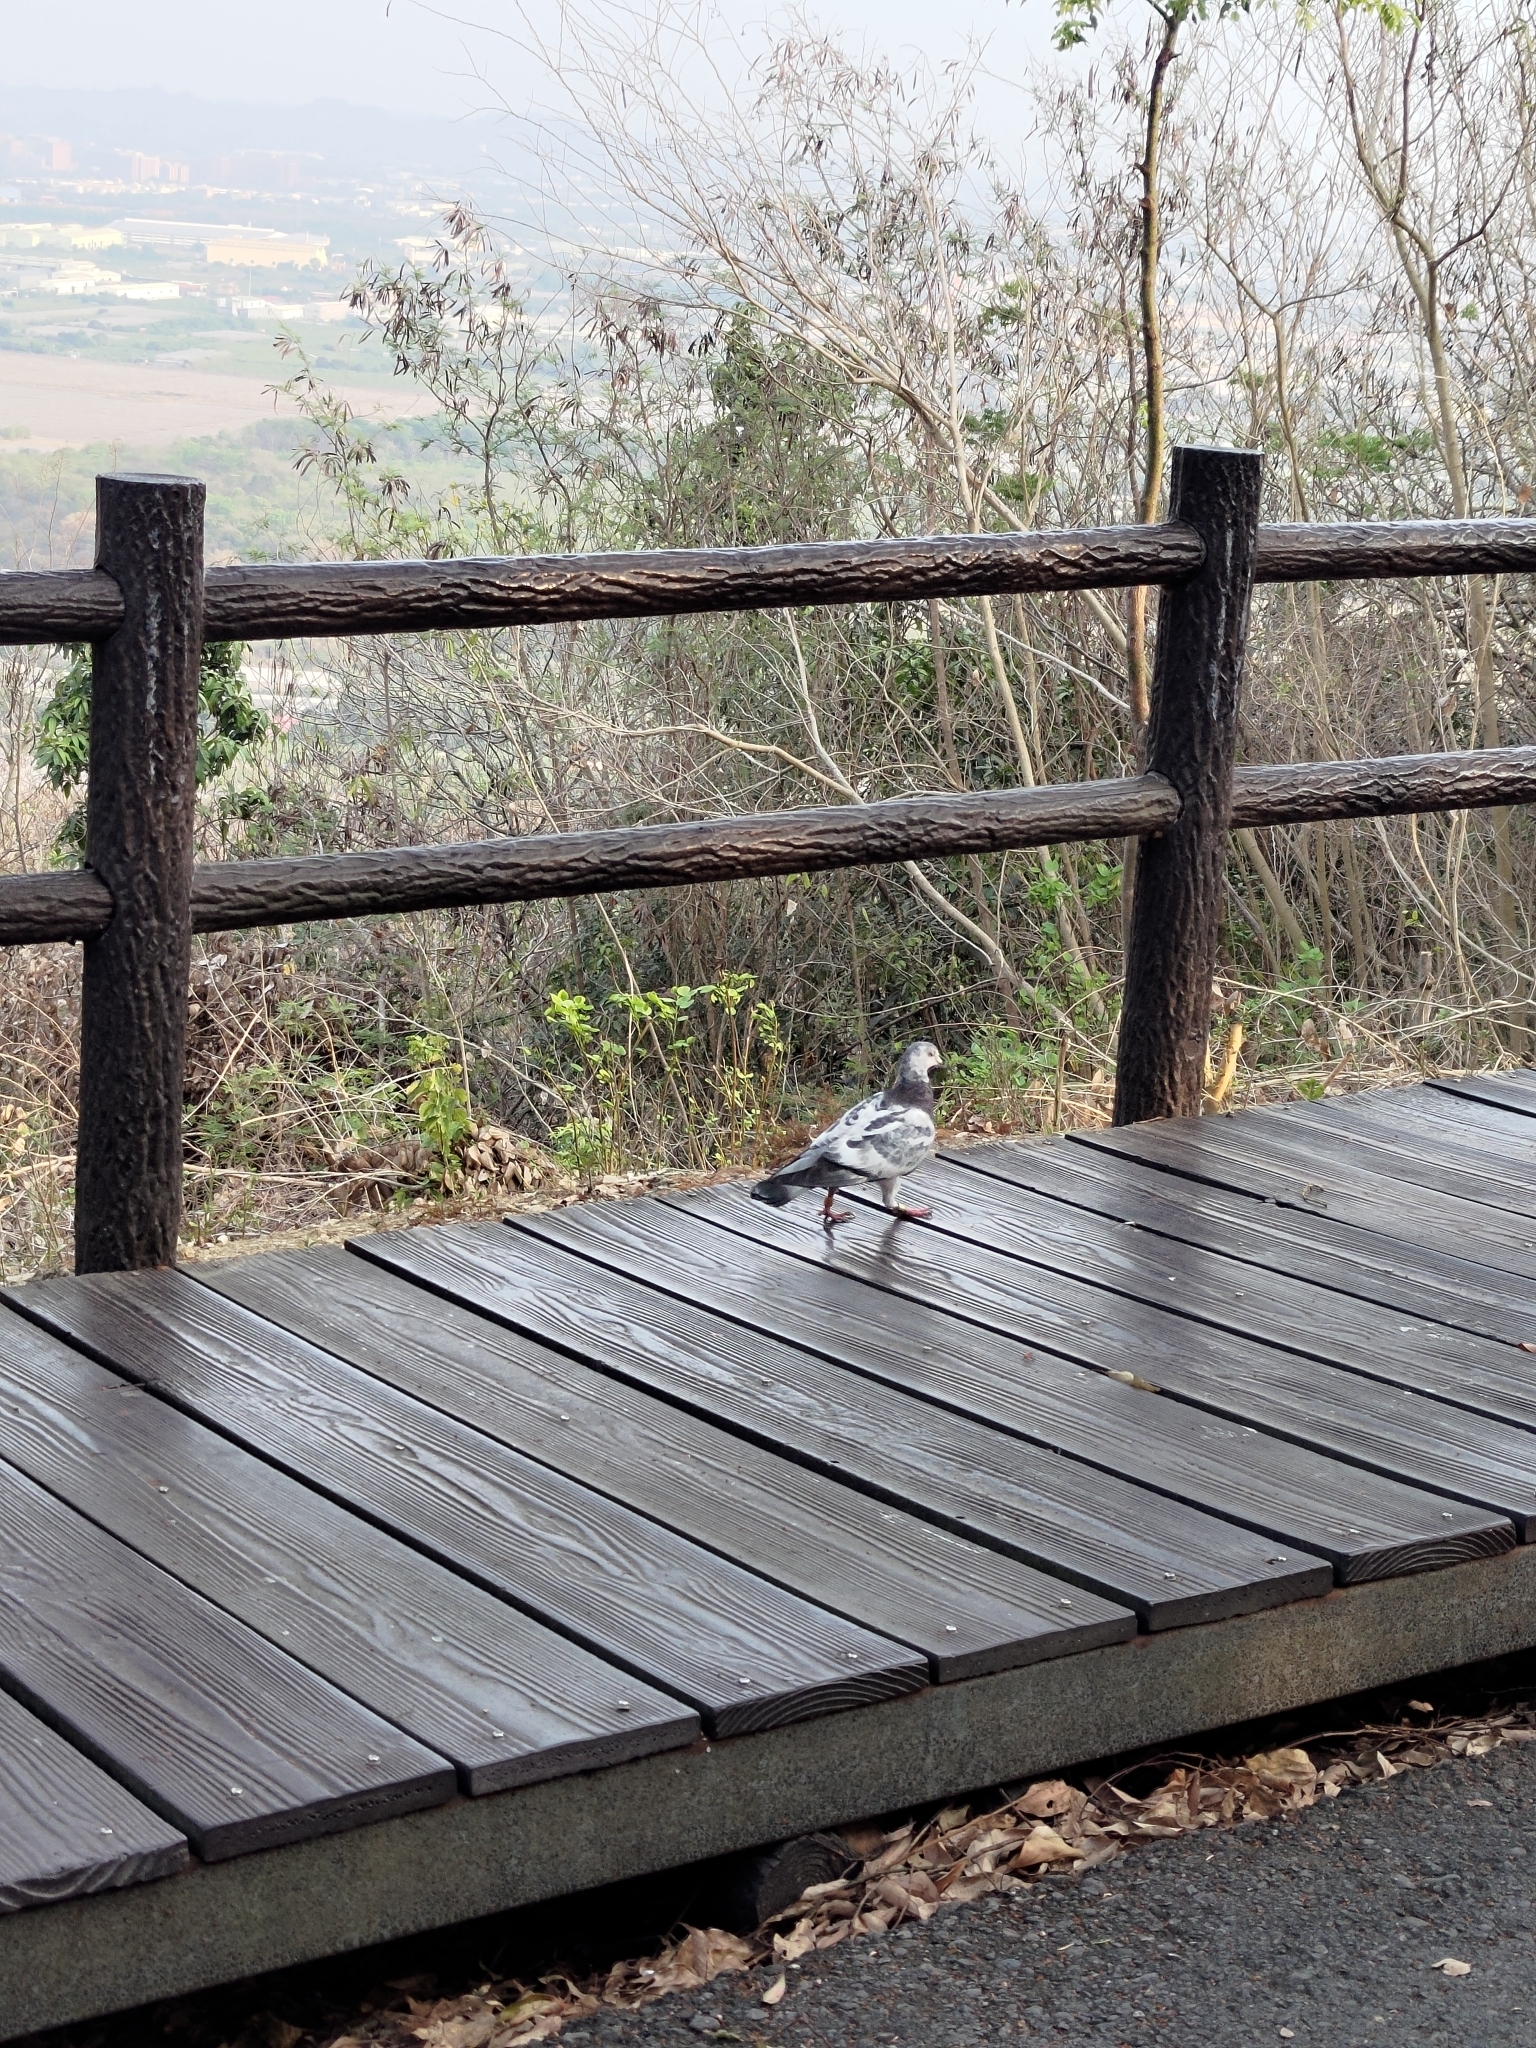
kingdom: Animalia
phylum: Chordata
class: Aves
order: Columbiformes
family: Columbidae
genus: Columba
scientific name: Columba livia
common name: Rock pigeon
